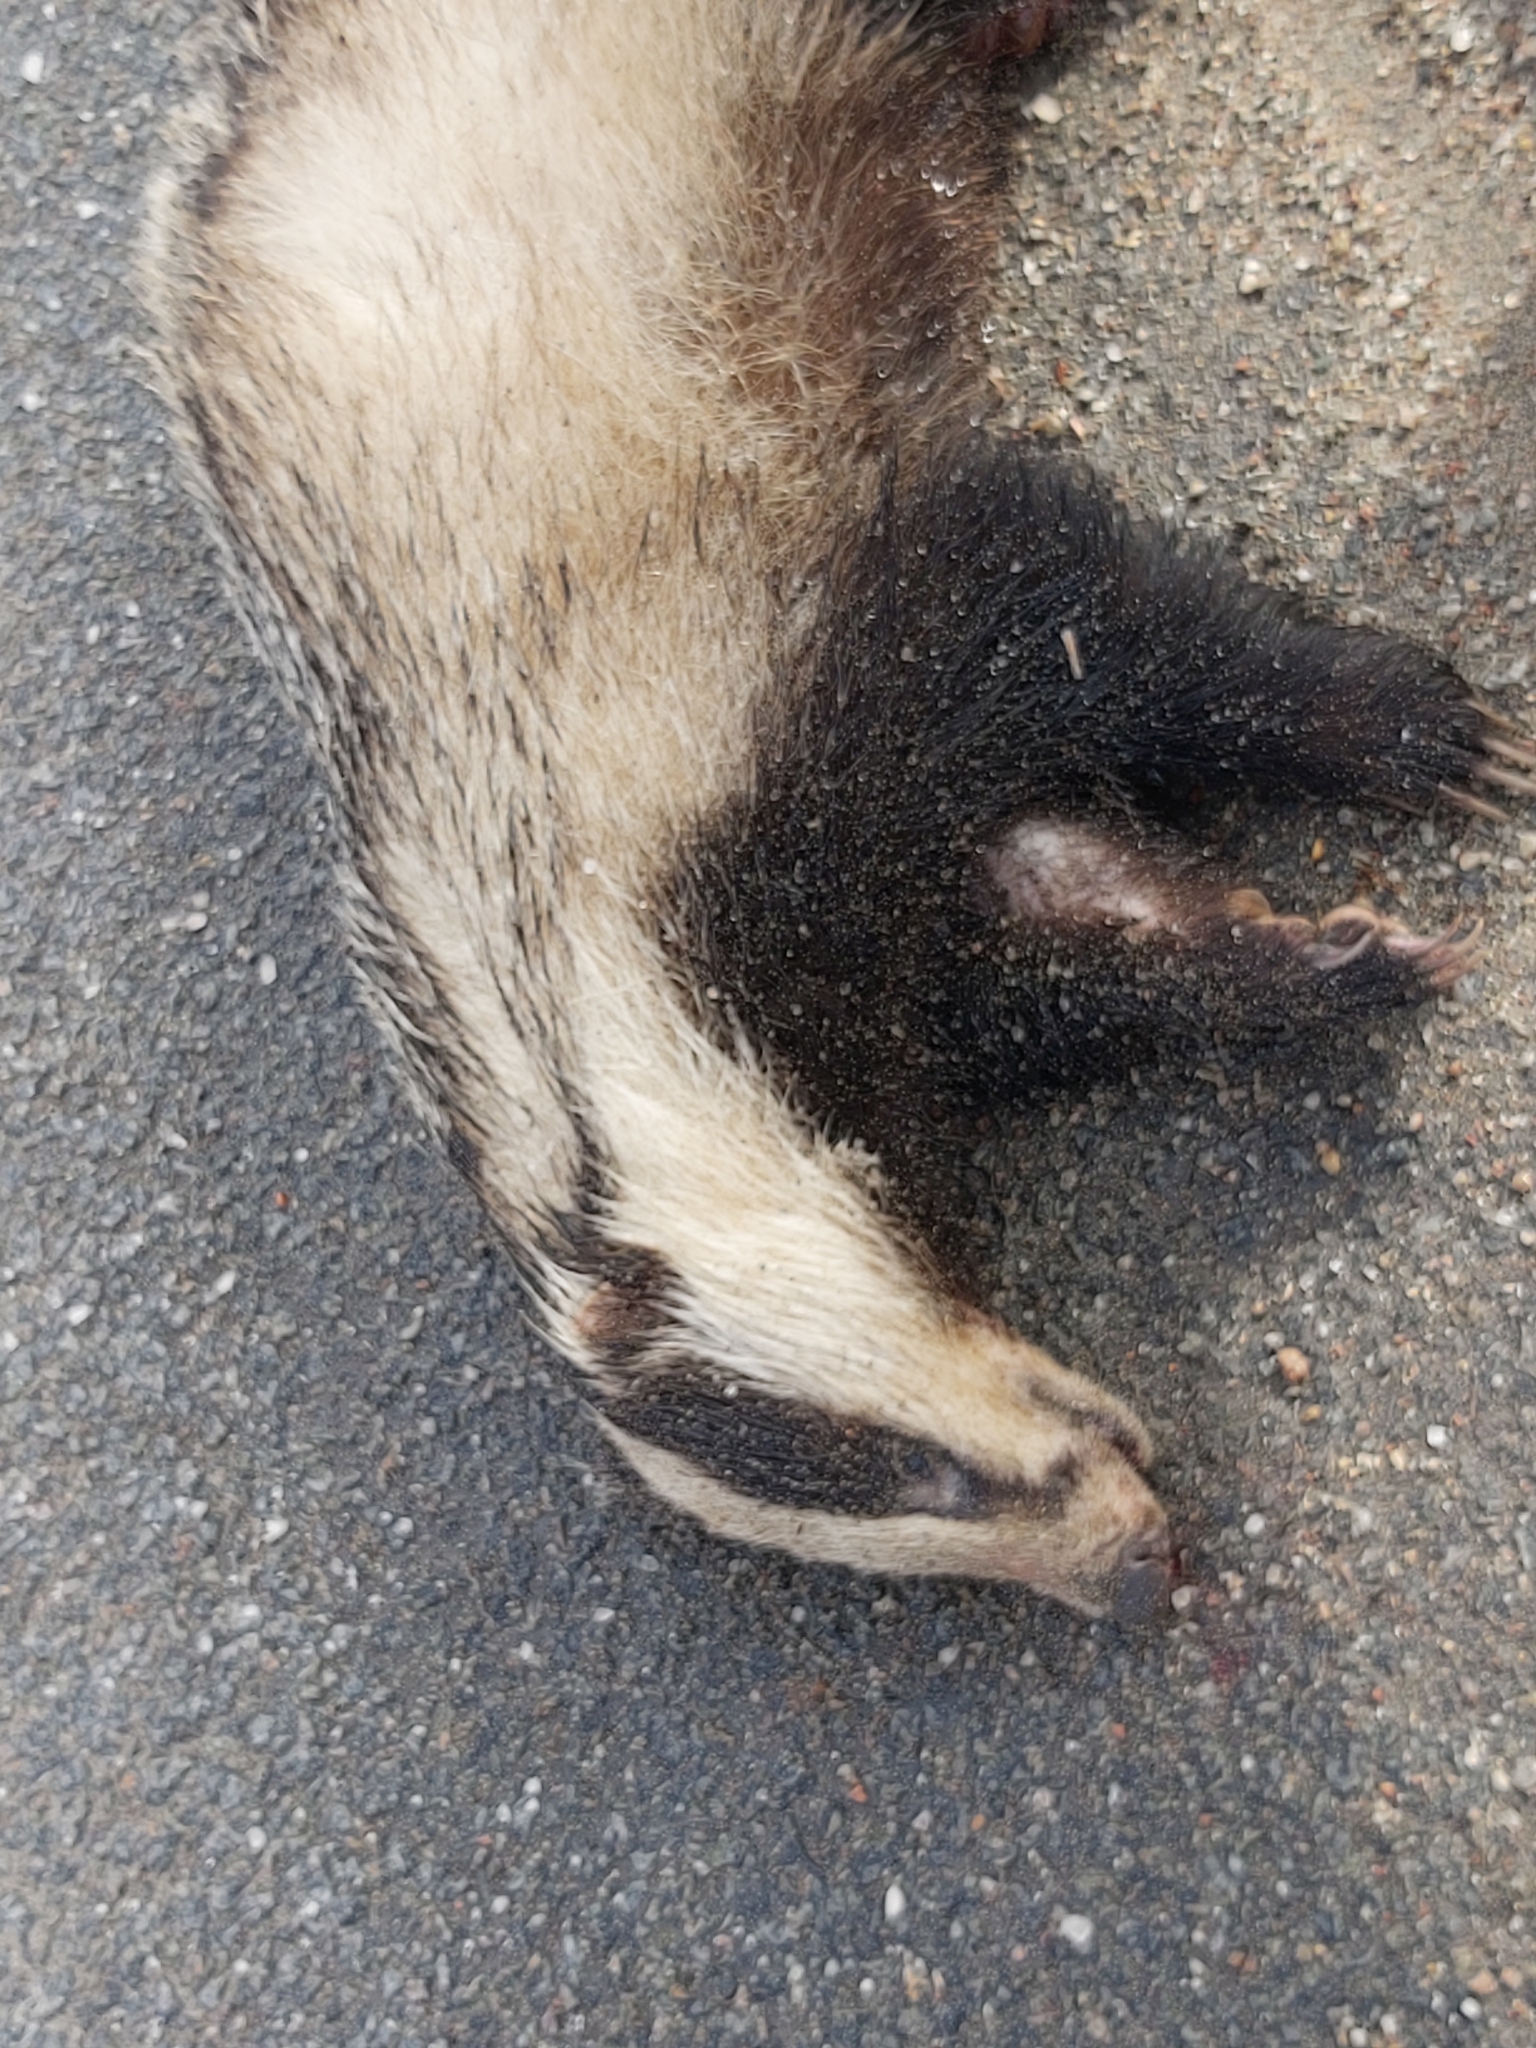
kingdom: Animalia
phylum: Chordata
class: Mammalia
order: Carnivora
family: Mustelidae
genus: Meles
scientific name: Meles meles
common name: Eurasian badger
